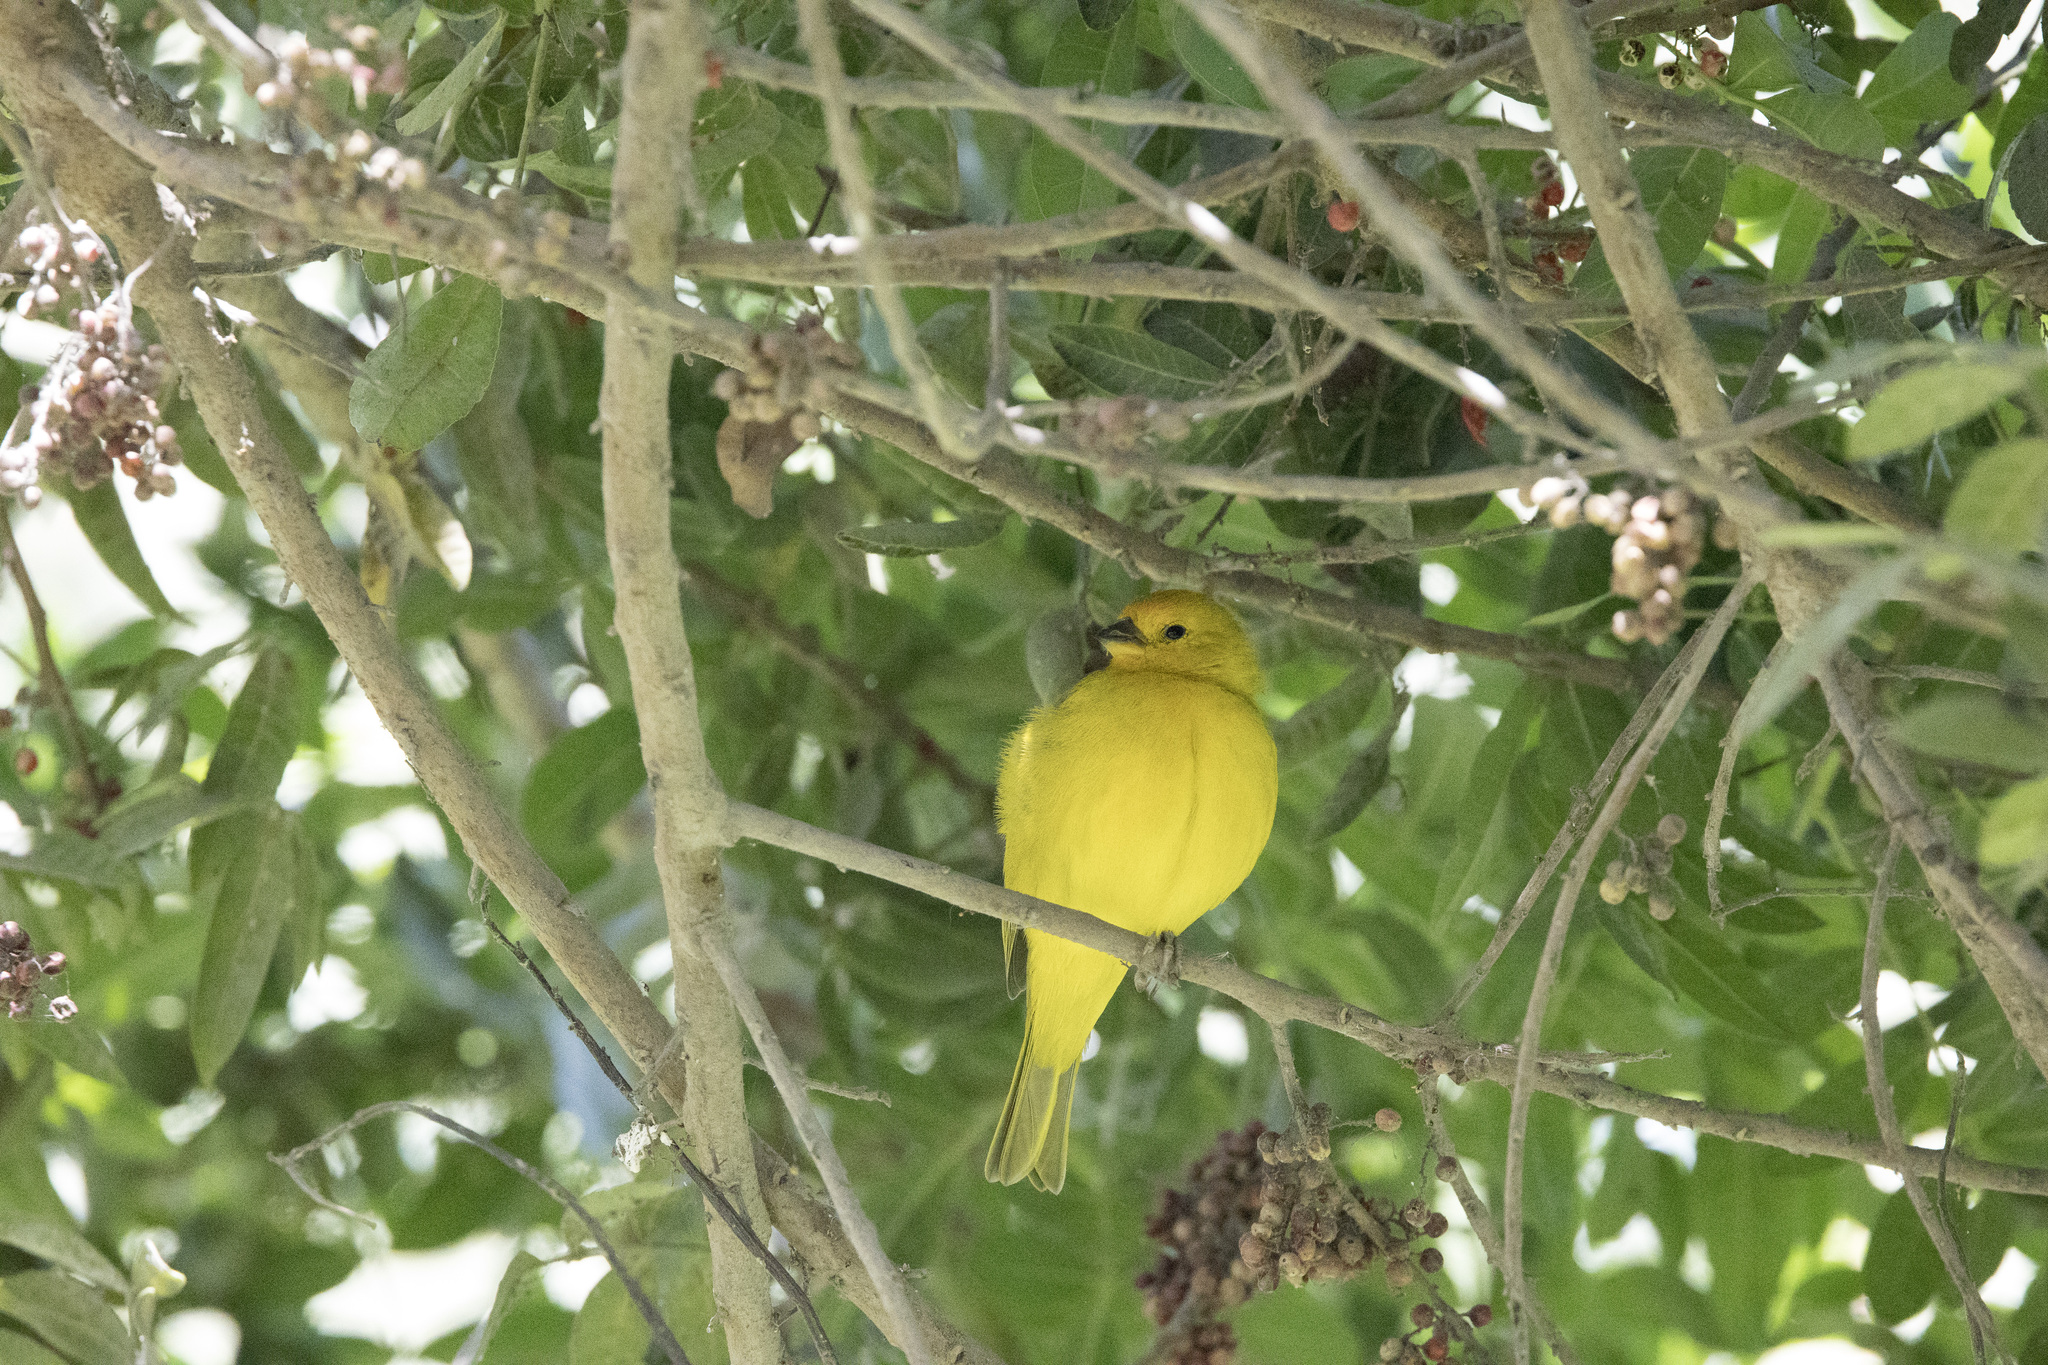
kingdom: Animalia
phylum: Chordata
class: Aves
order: Passeriformes
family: Thraupidae
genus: Sicalis
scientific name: Sicalis flaveola
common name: Saffron finch
